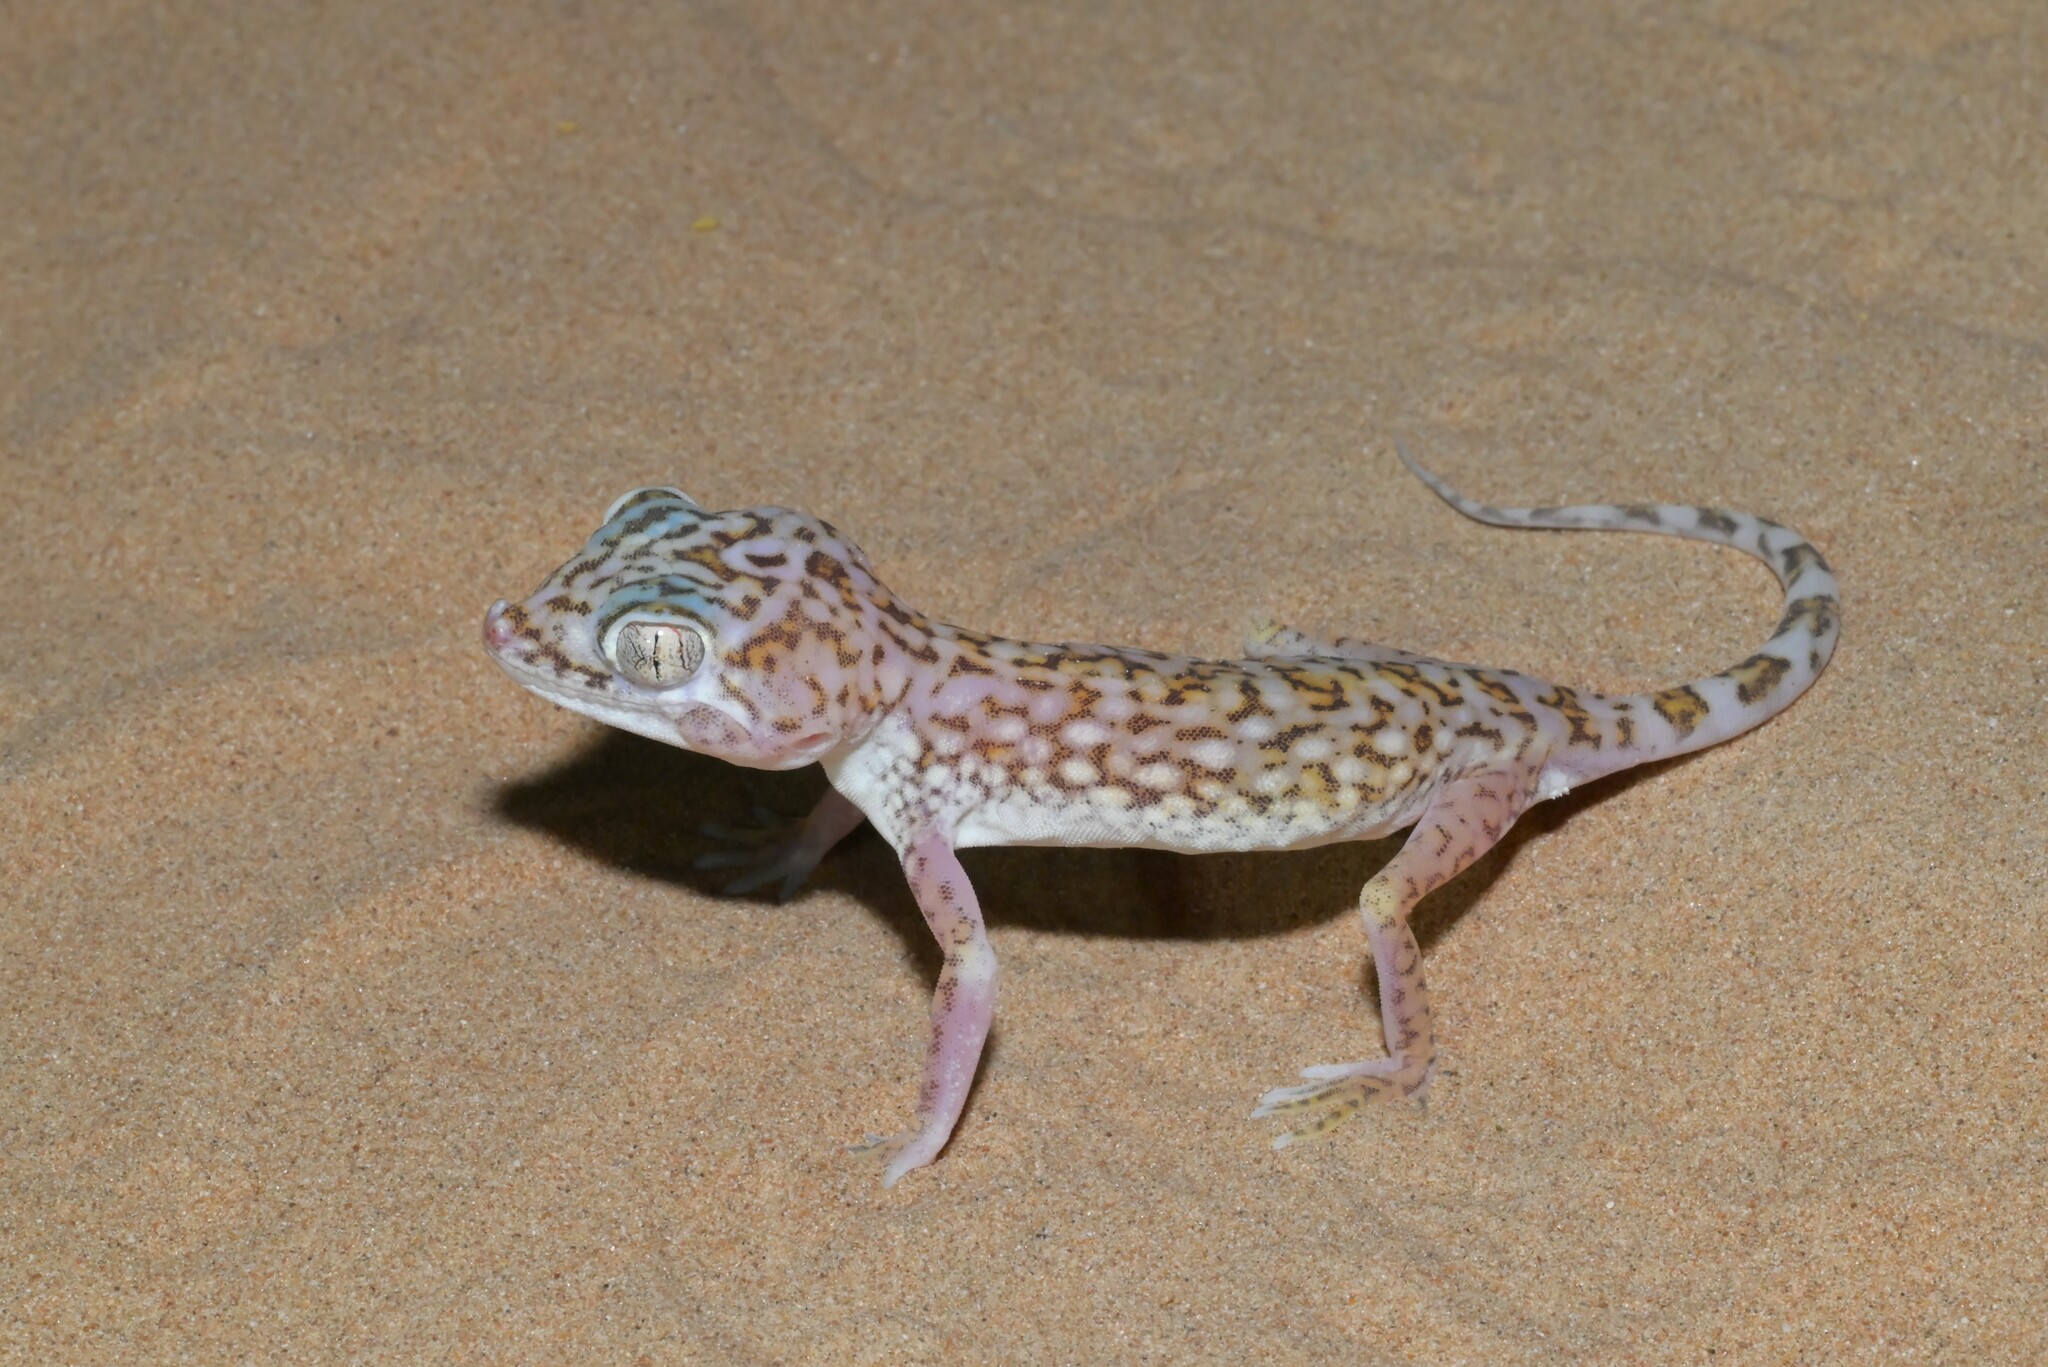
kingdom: Animalia
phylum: Chordata
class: Squamata
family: Gekkonidae
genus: Stenodactylus
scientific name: Stenodactylus doriae
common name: Dune sand gecko
